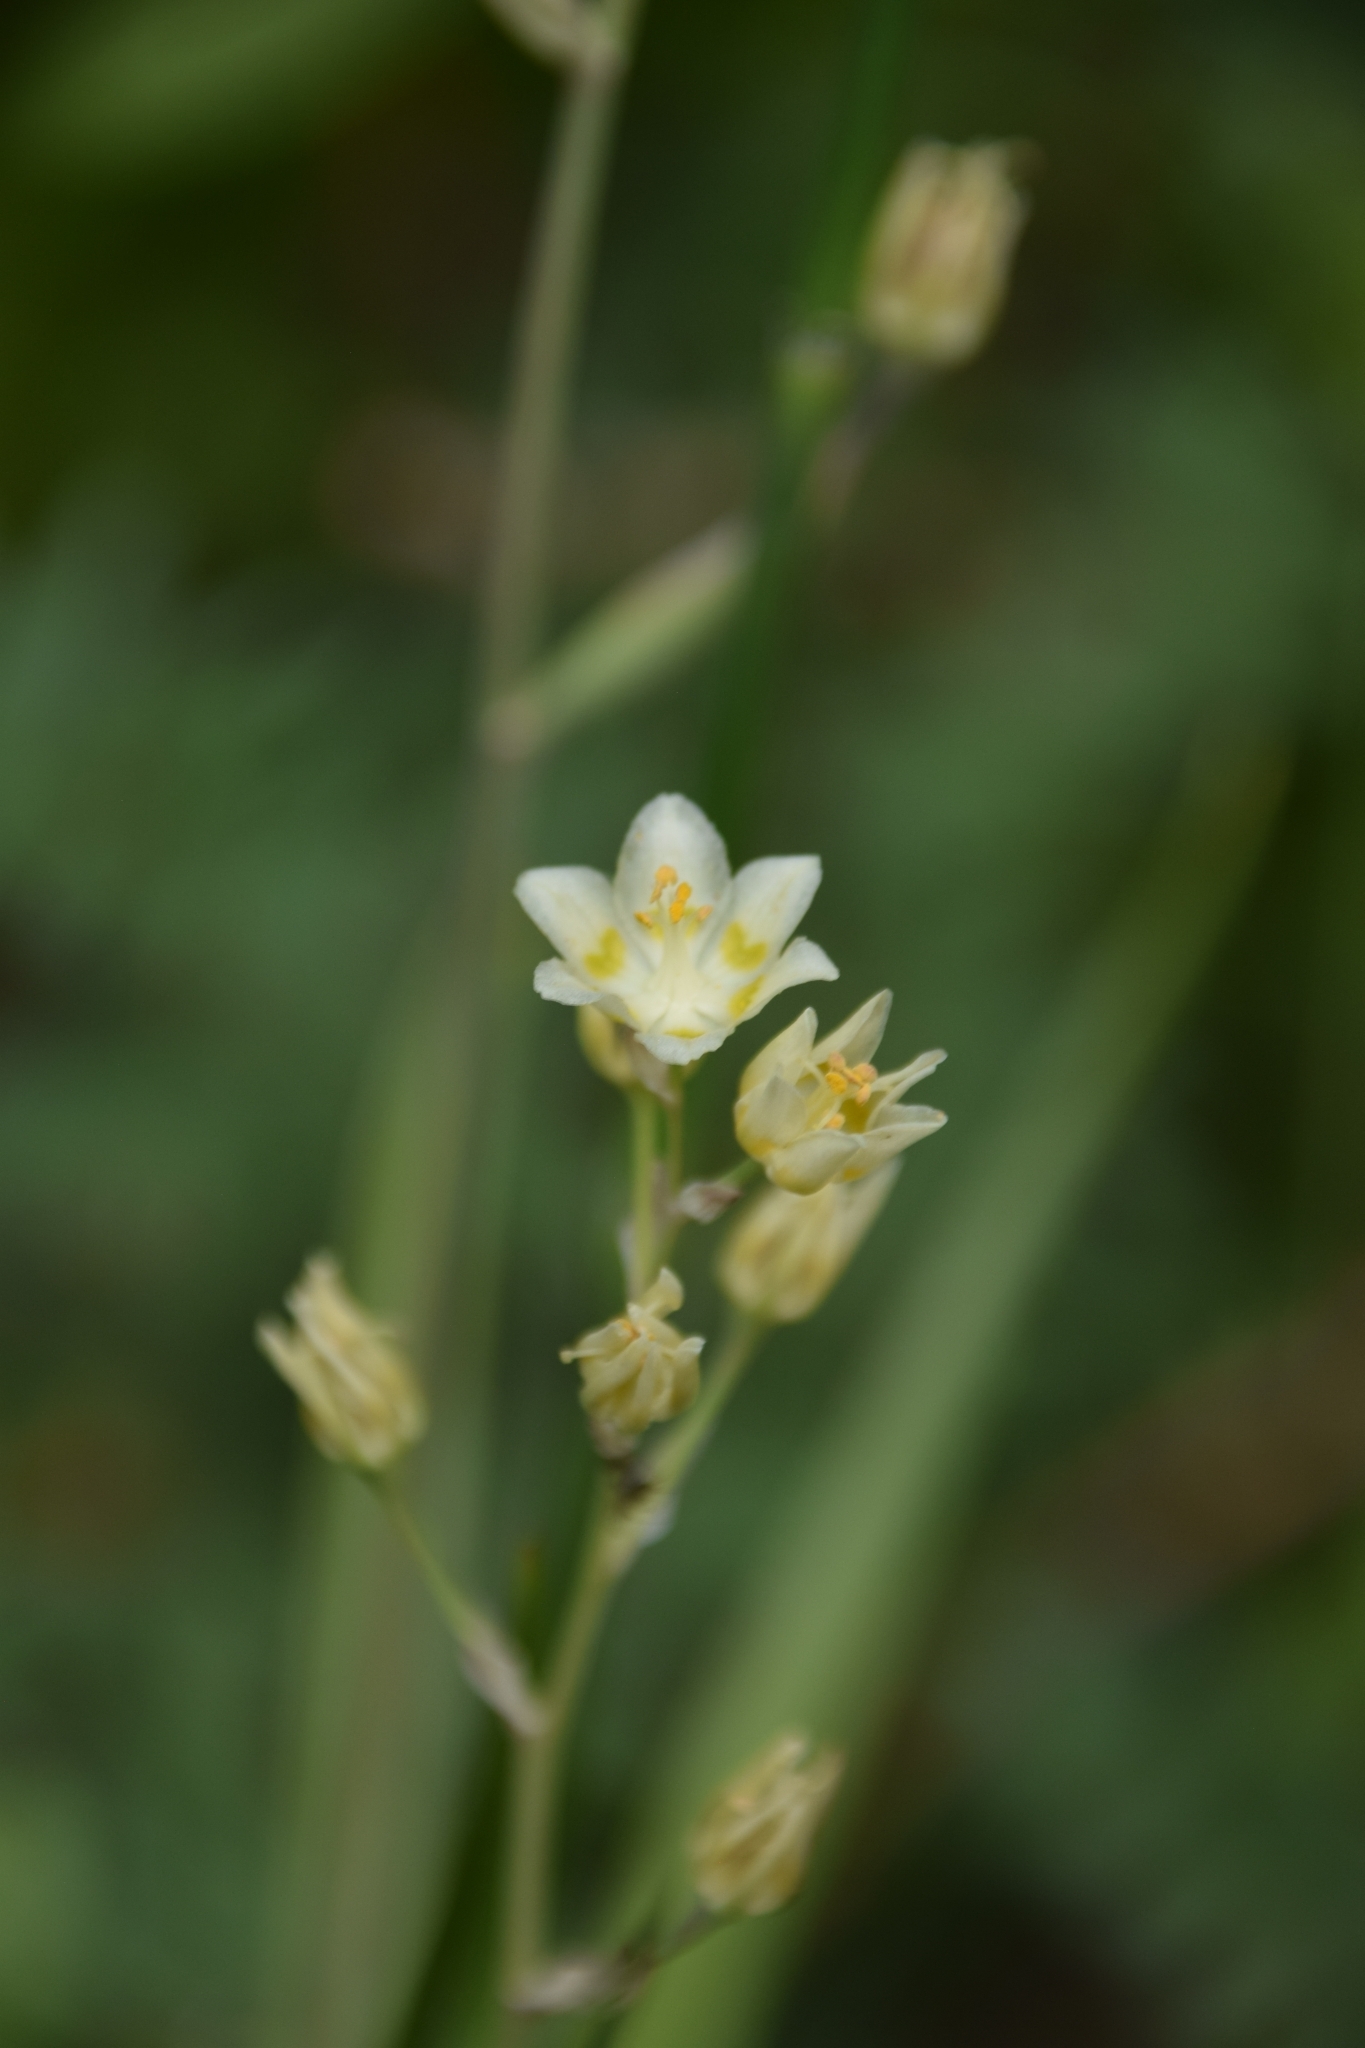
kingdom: Plantae
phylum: Tracheophyta
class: Liliopsida
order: Liliales
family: Melanthiaceae
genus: Anticlea
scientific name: Anticlea elegans
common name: Mountain death camas
